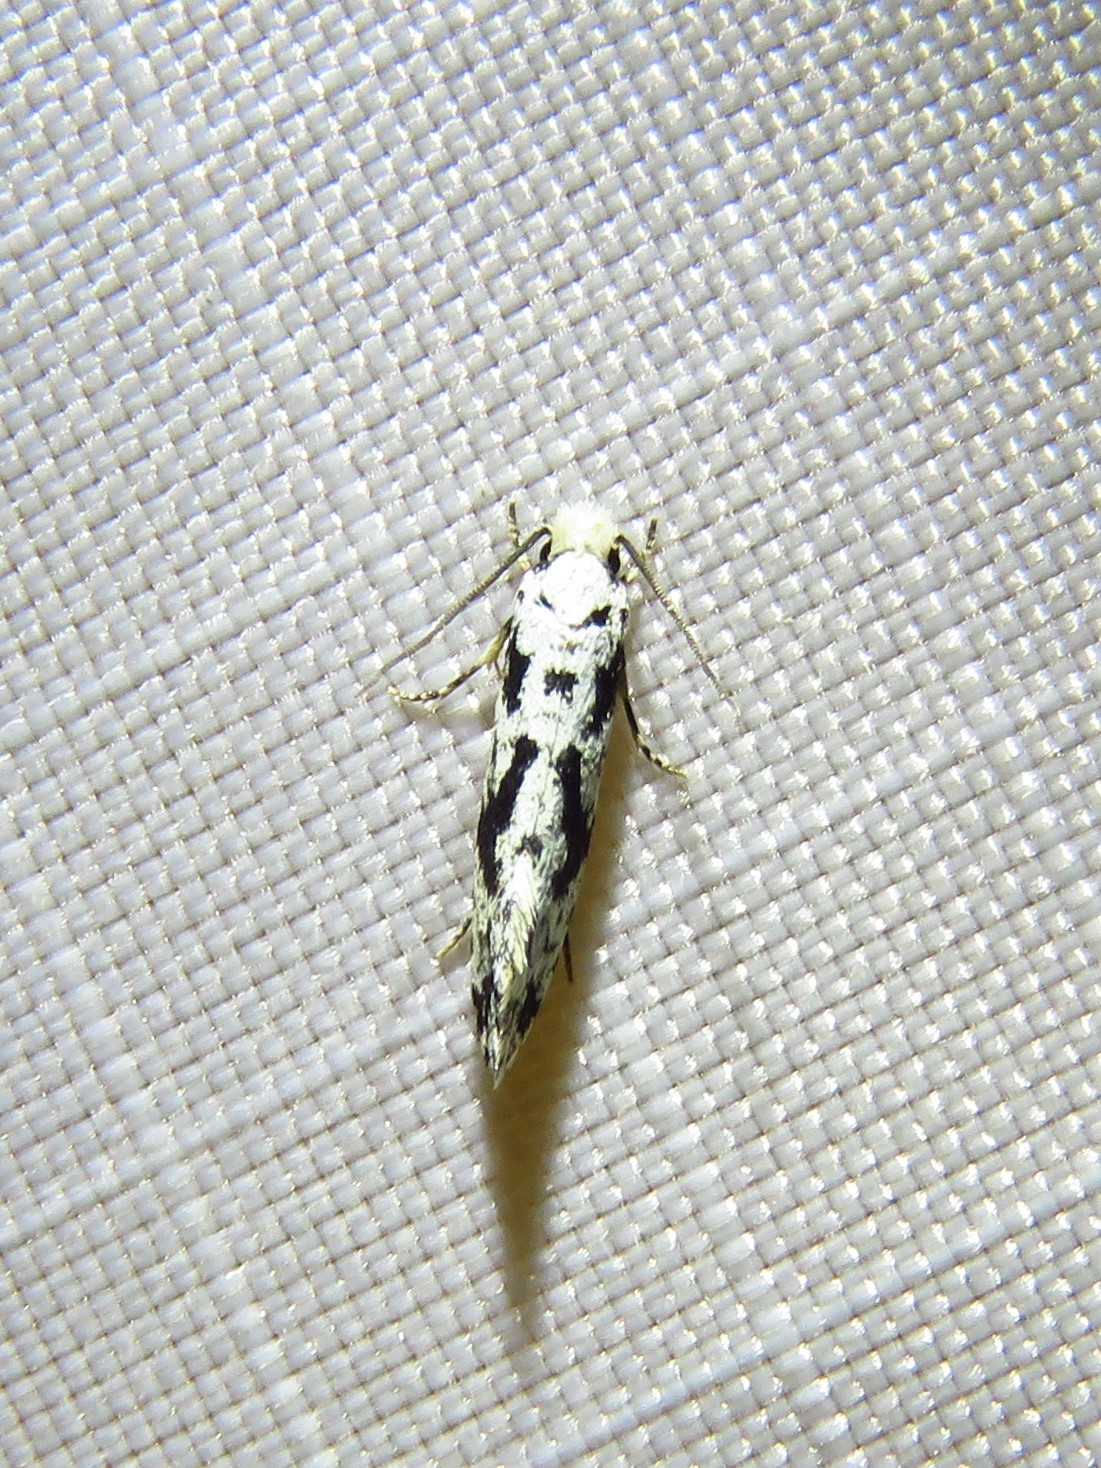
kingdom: Animalia
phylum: Arthropoda
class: Insecta
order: Lepidoptera
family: Tineidae
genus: Nemapogon
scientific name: Nemapogon defectella
